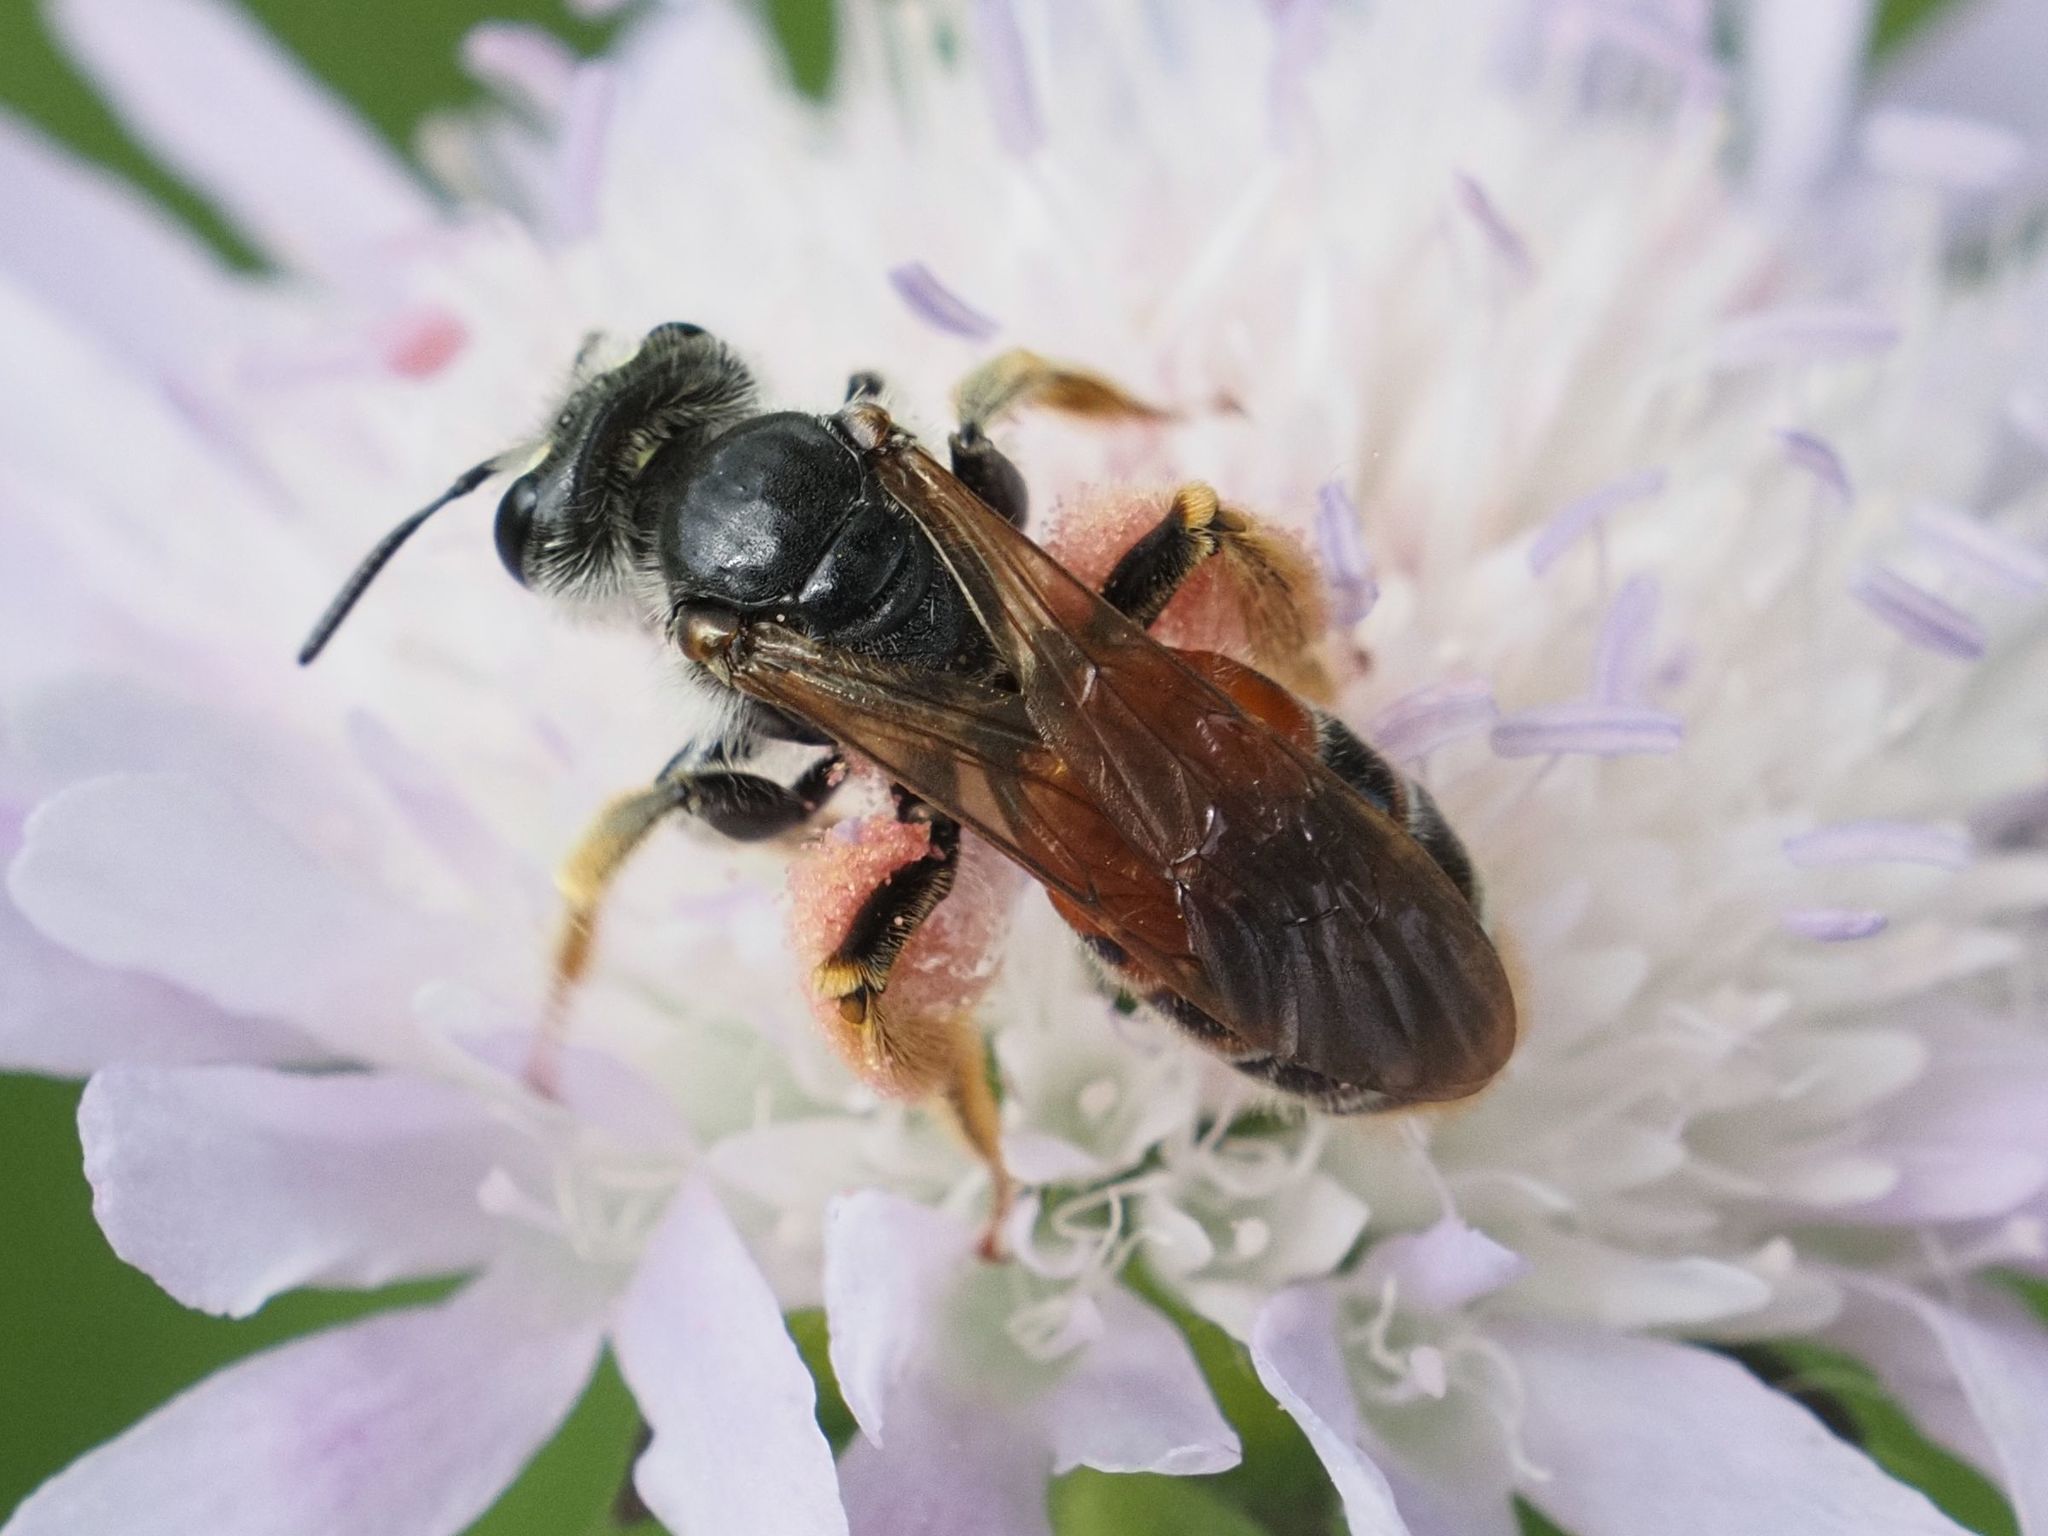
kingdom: Animalia
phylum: Arthropoda
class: Insecta
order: Hymenoptera
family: Andrenidae
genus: Andrena
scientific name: Andrena hattorfiana
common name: Large scabious mining bee
